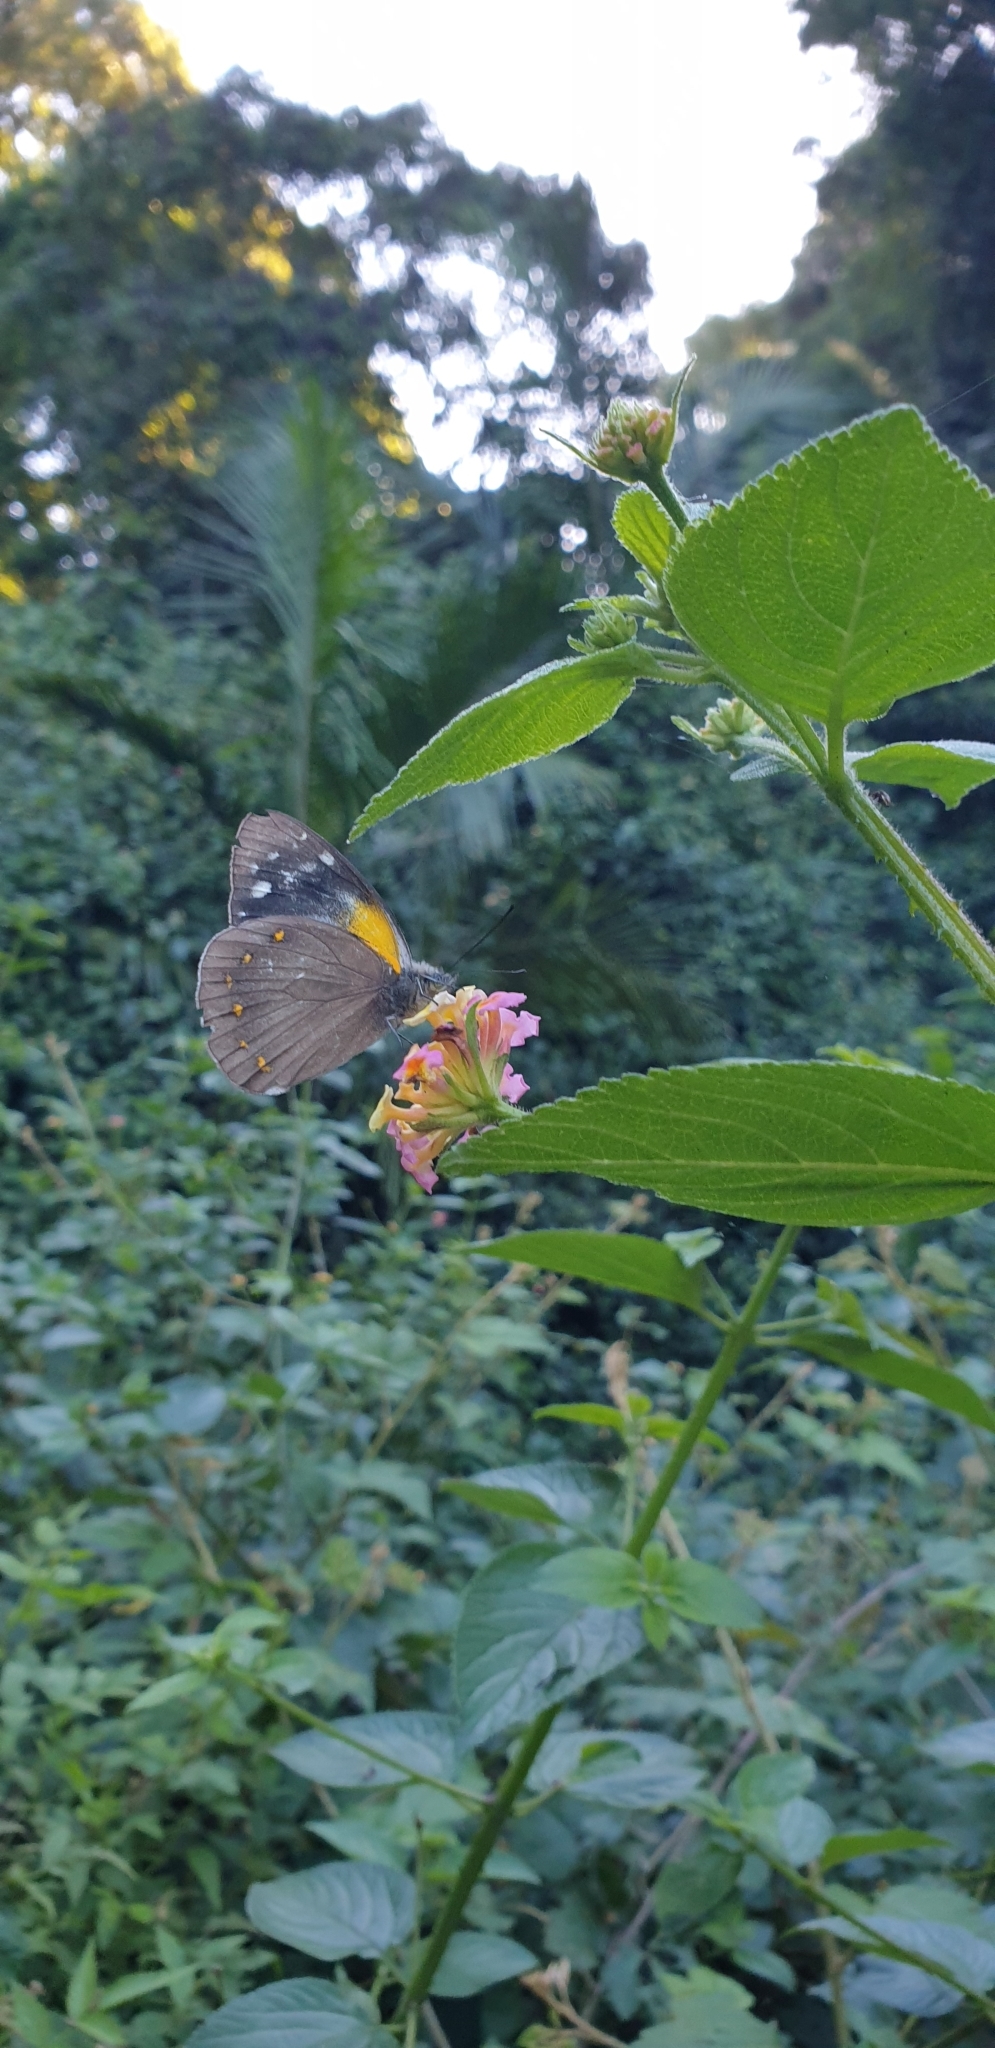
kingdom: Animalia
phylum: Arthropoda
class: Insecta
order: Lepidoptera
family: Pieridae
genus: Delias
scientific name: Delias nysa
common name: Yellow-spotted jezebel
